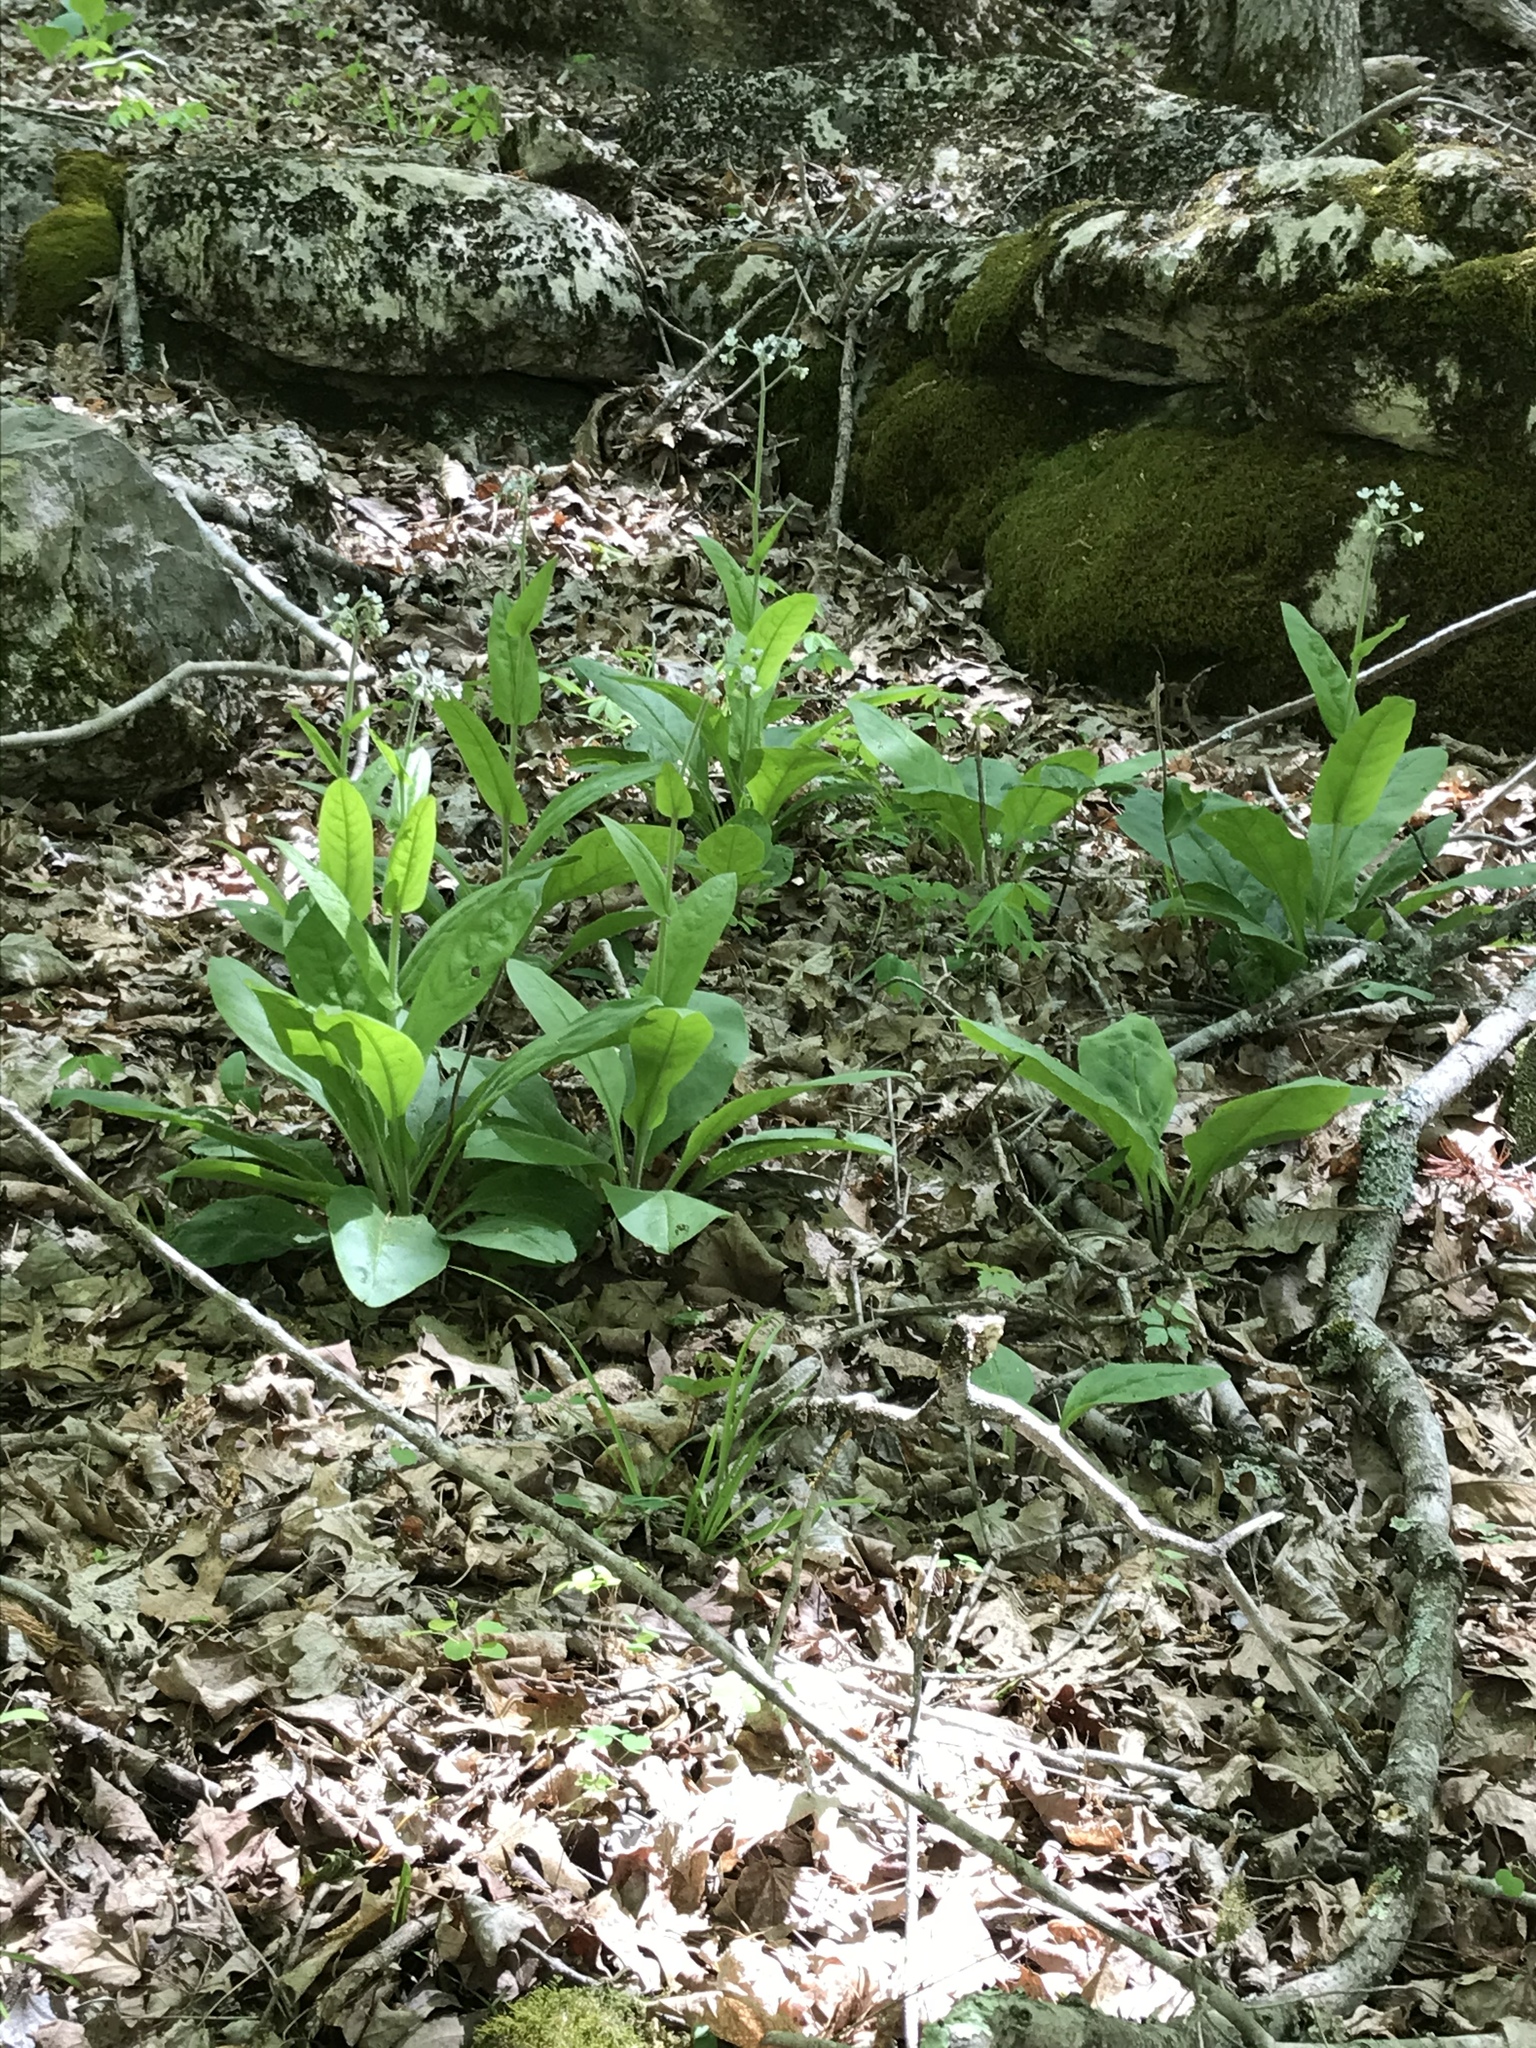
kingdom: Plantae
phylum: Tracheophyta
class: Magnoliopsida
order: Boraginales
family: Boraginaceae
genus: Andersonglossum
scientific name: Andersonglossum virginianum
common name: Wild comfrey
